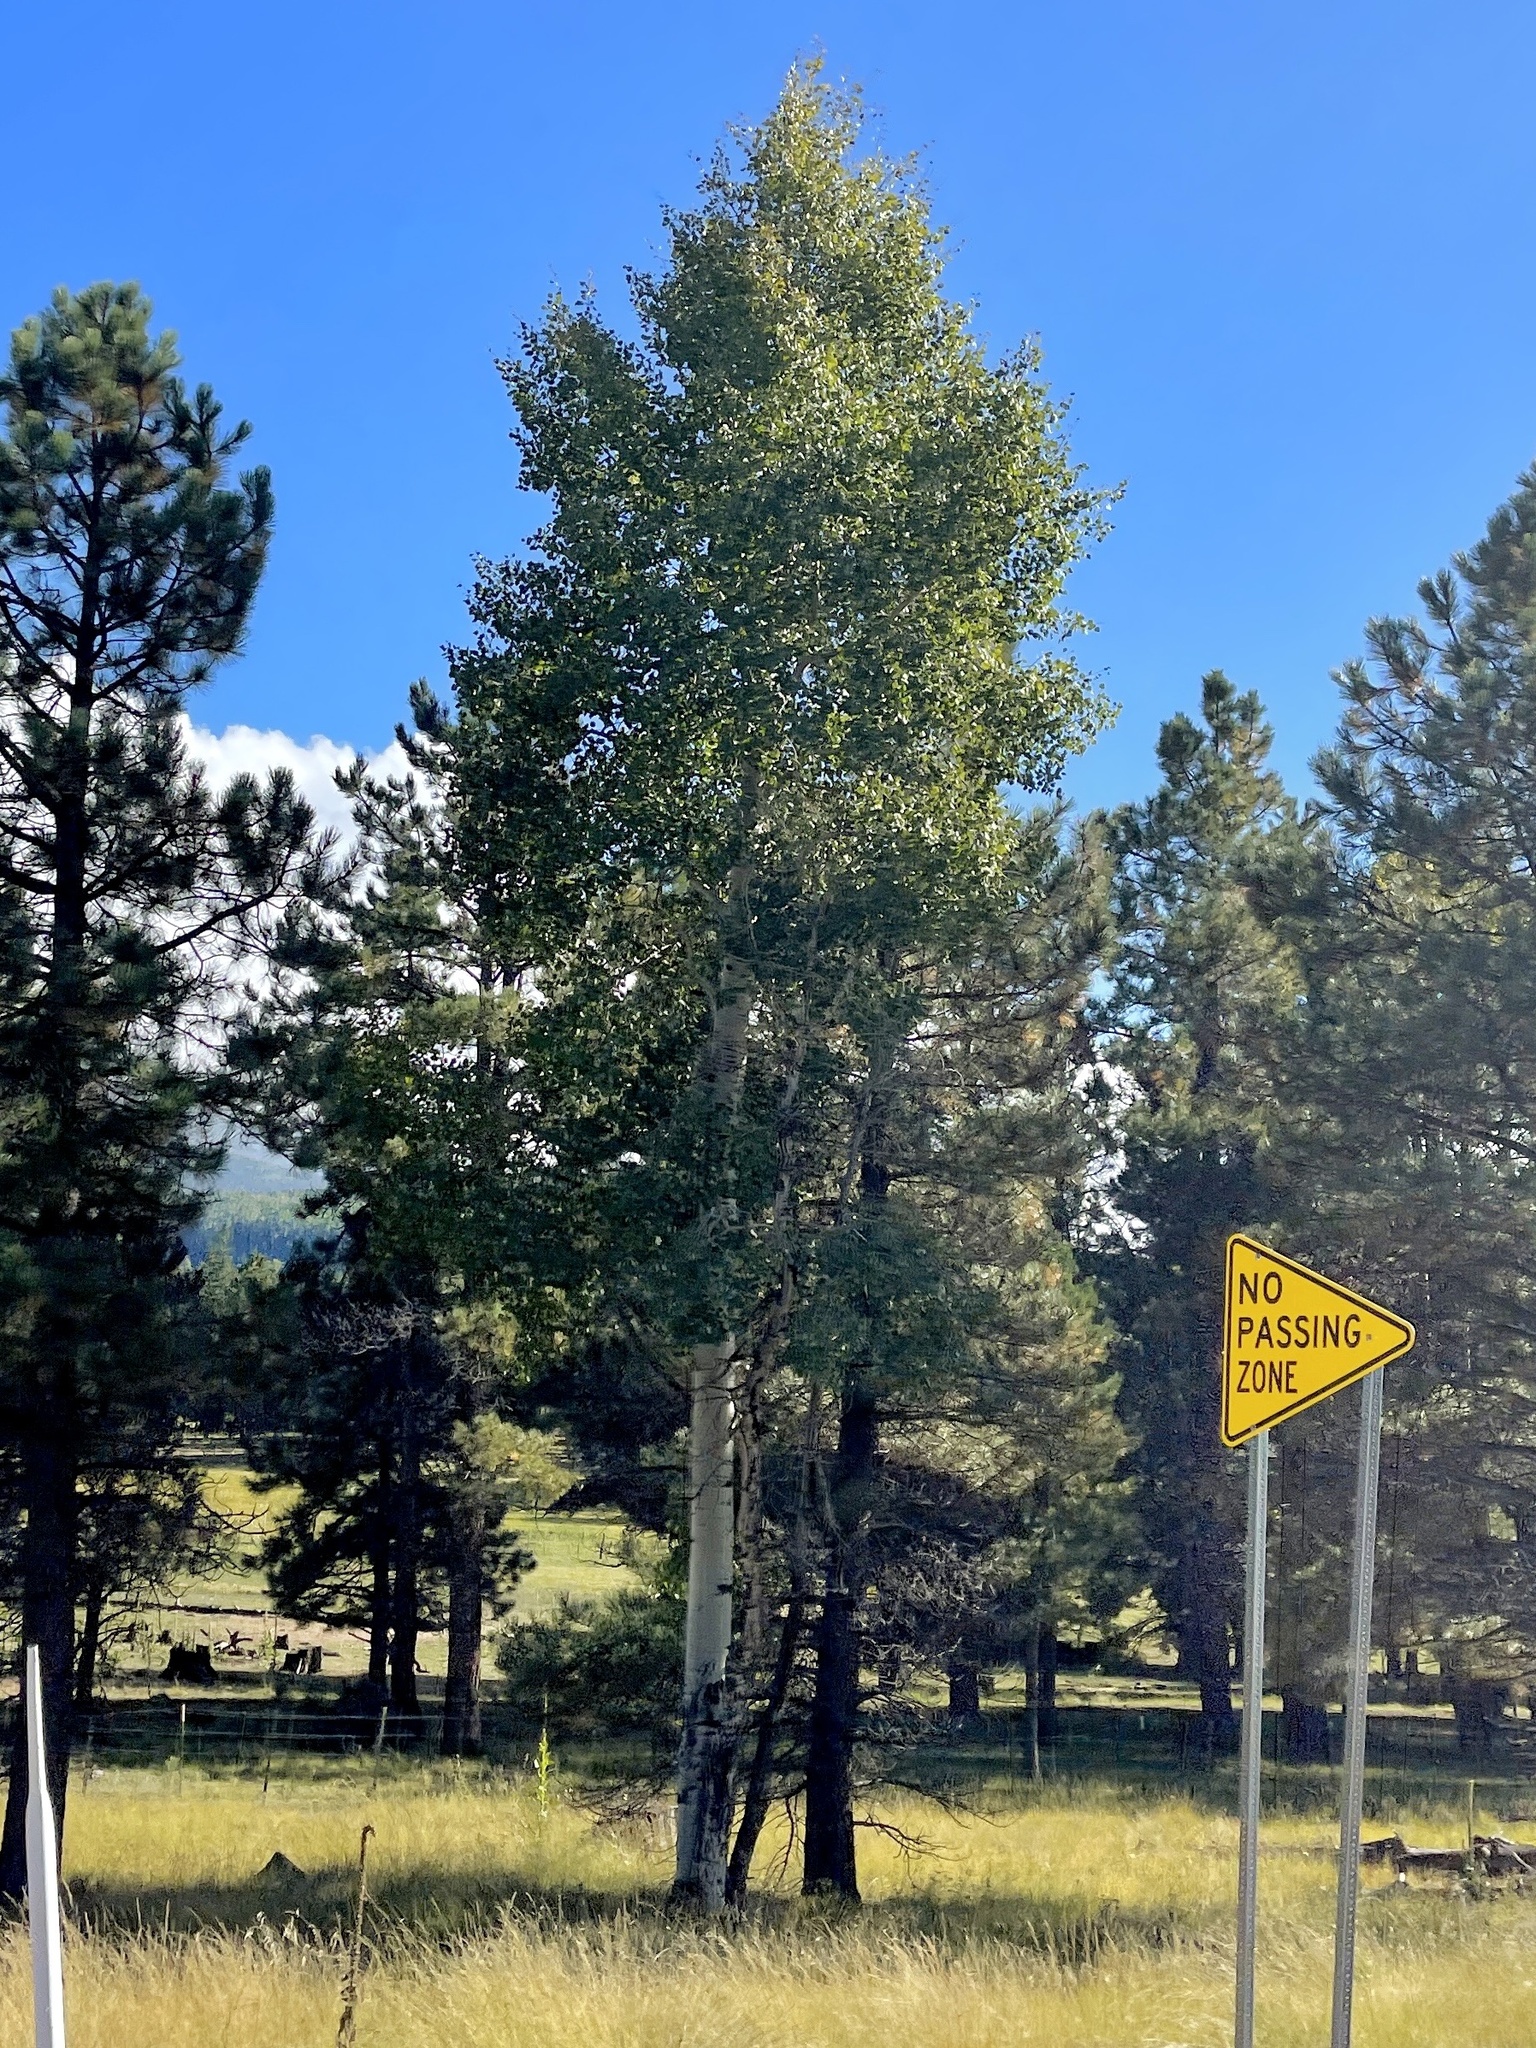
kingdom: Plantae
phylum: Tracheophyta
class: Magnoliopsida
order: Malpighiales
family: Salicaceae
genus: Populus
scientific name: Populus tremuloides
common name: Quaking aspen
